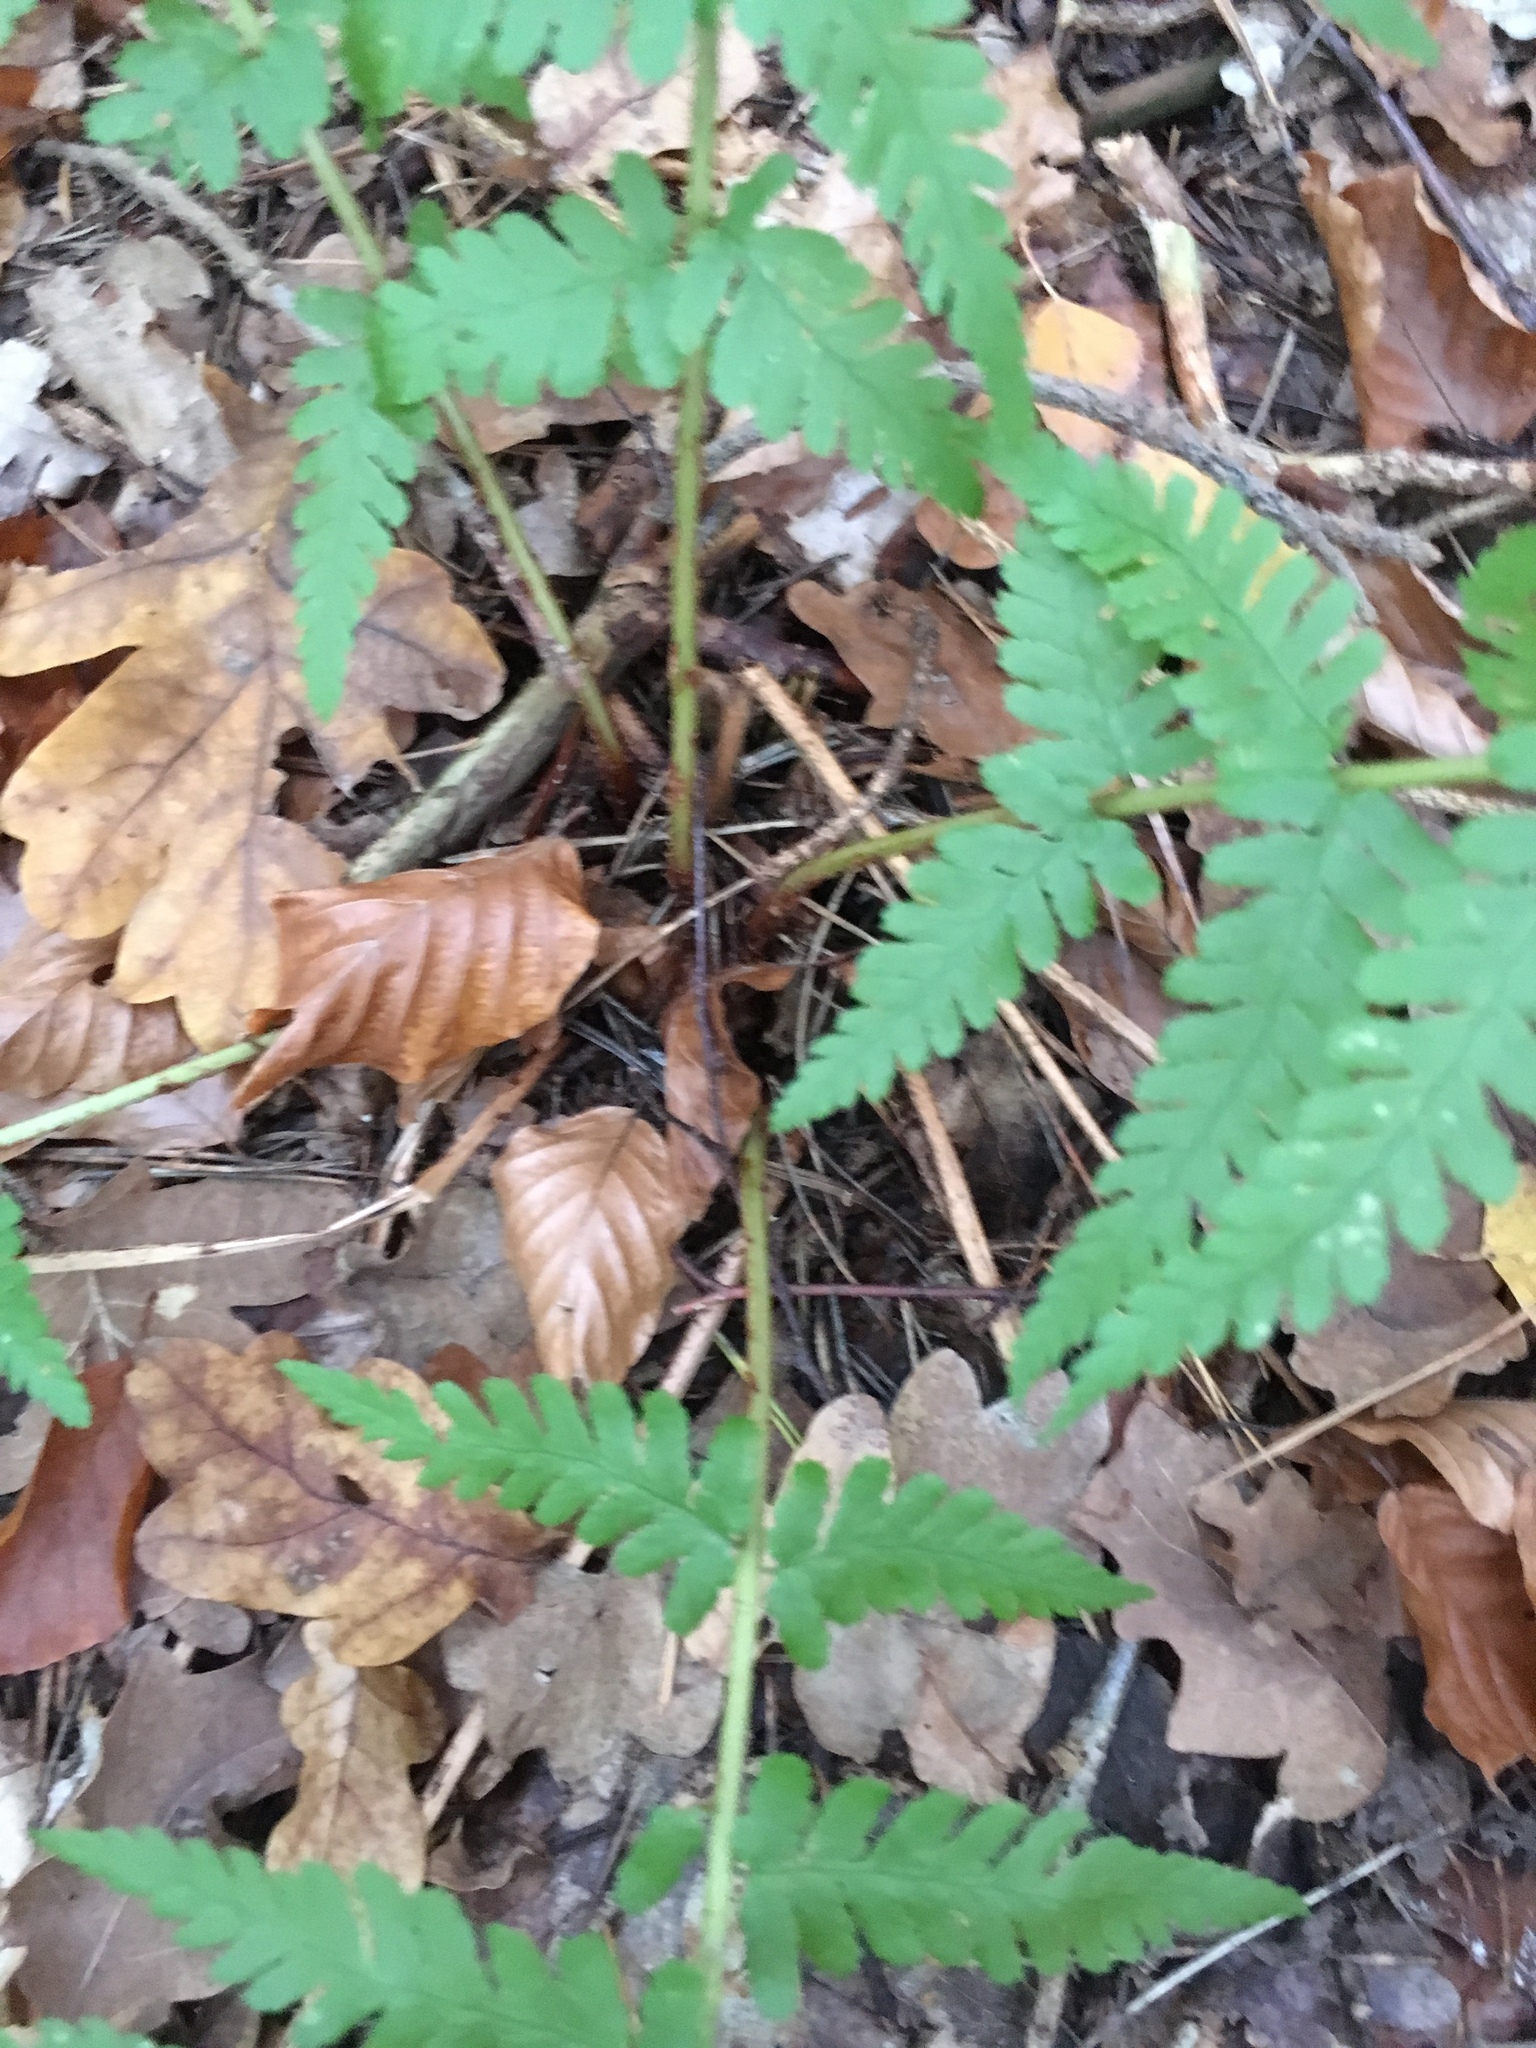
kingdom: Plantae
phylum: Tracheophyta
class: Polypodiopsida
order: Polypodiales
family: Dryopteridaceae
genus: Dryopteris
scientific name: Dryopteris filix-mas
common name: Male fern
